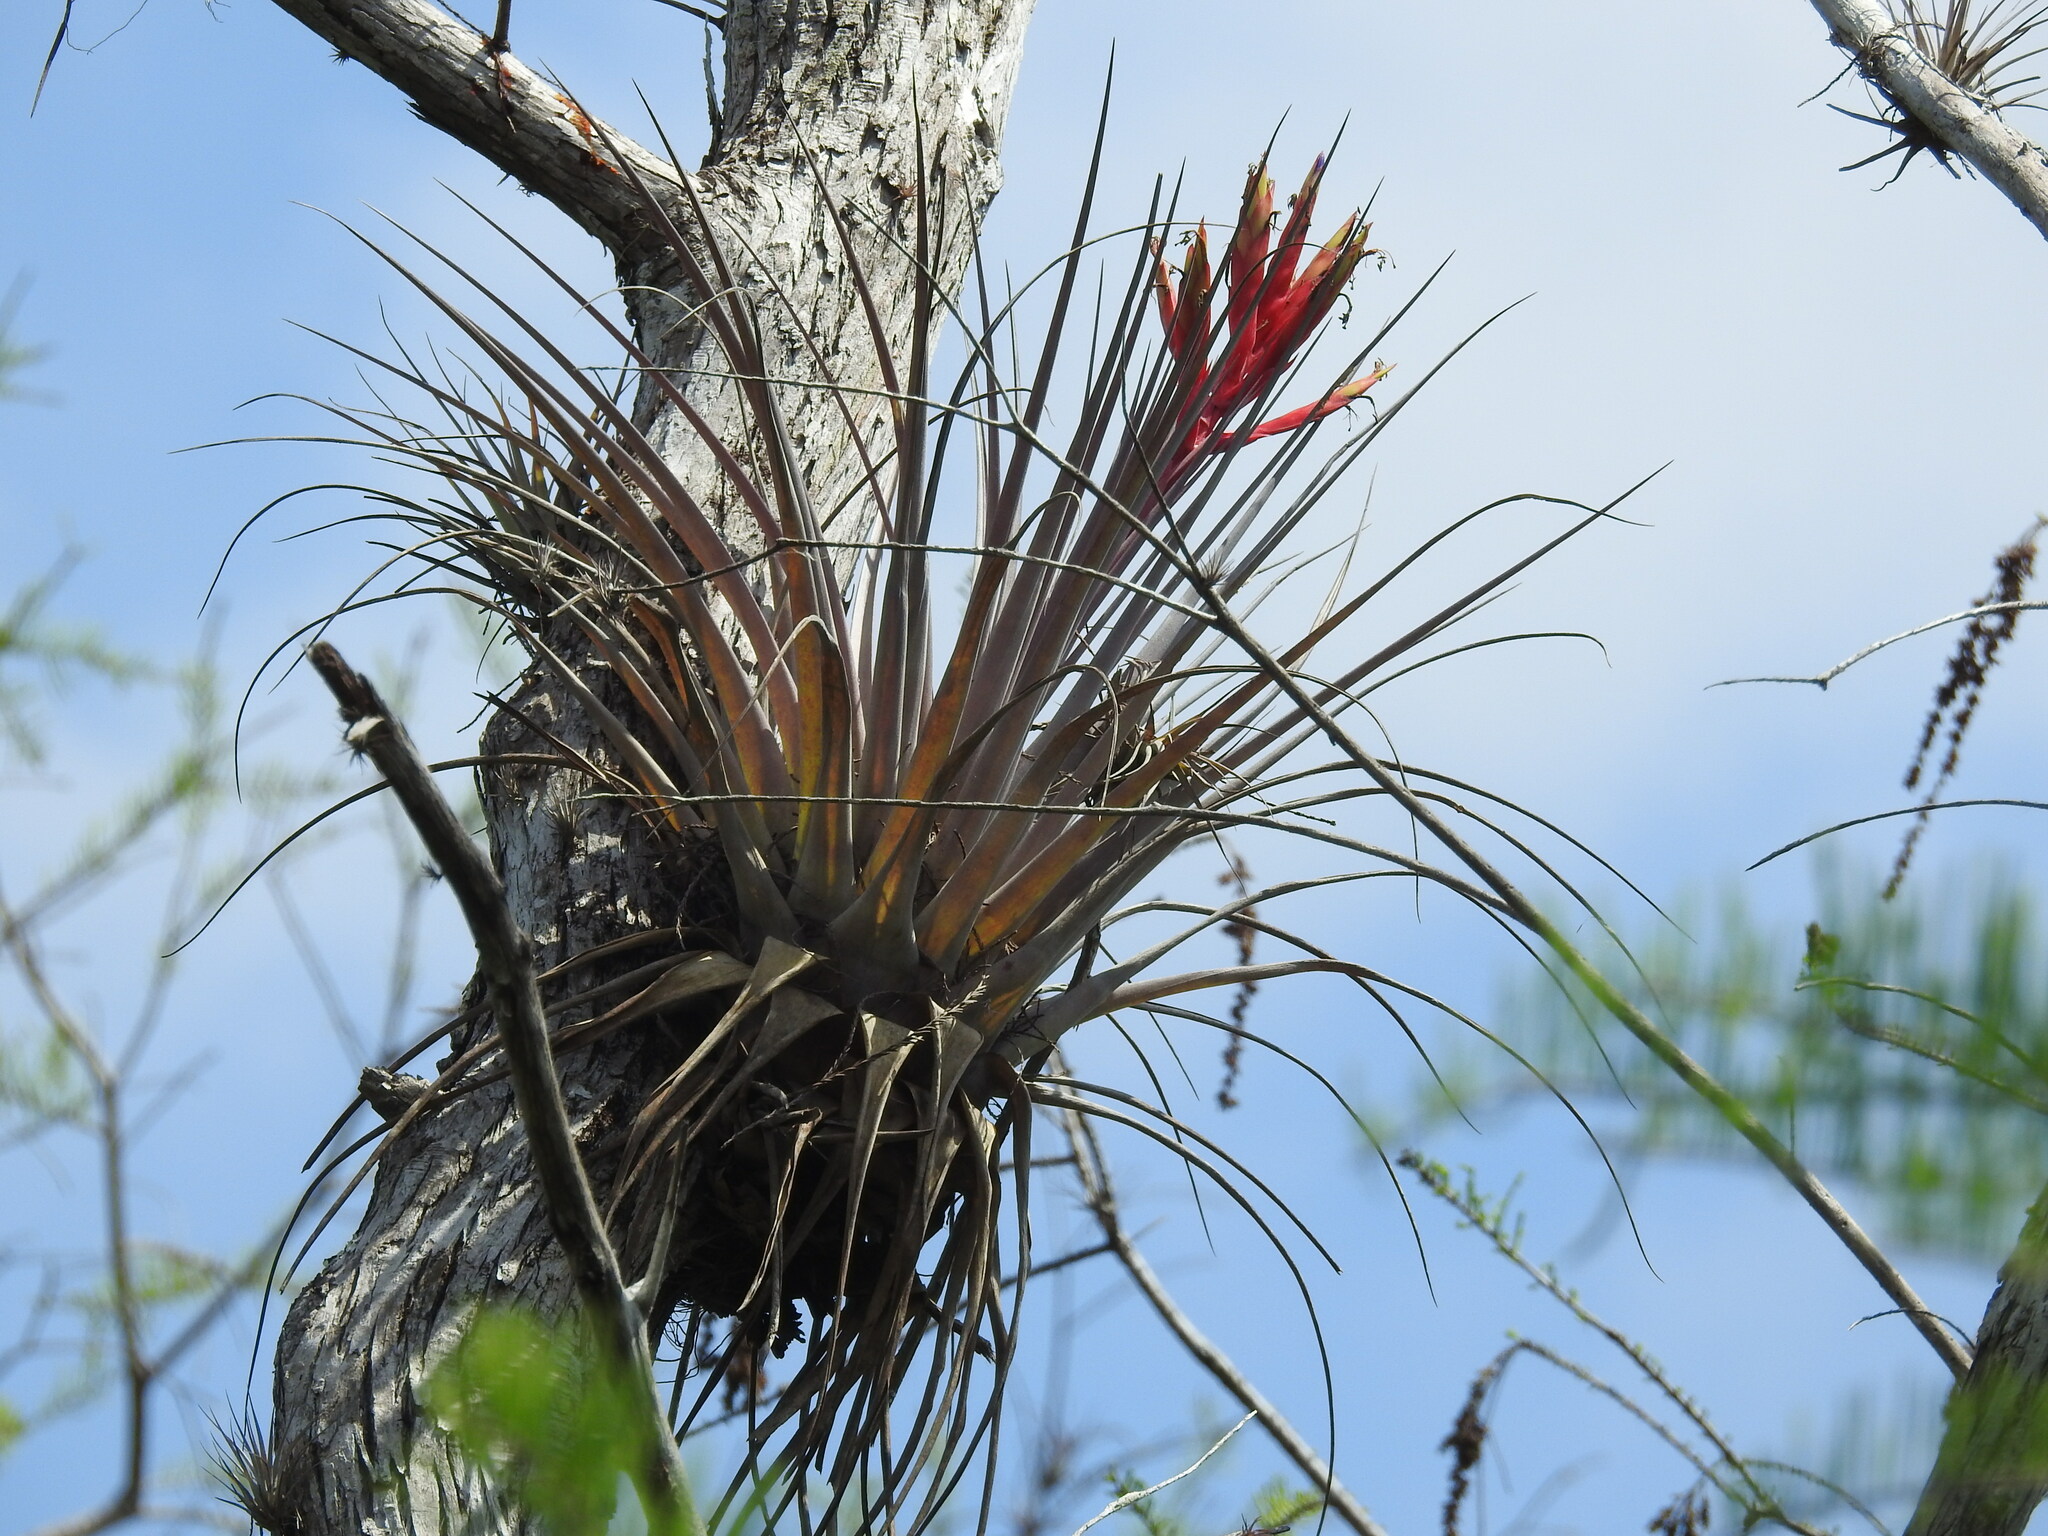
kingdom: Plantae
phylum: Tracheophyta
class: Liliopsida
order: Poales
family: Bromeliaceae
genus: Tillandsia
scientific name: Tillandsia fasciculata
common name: Giant airplant
